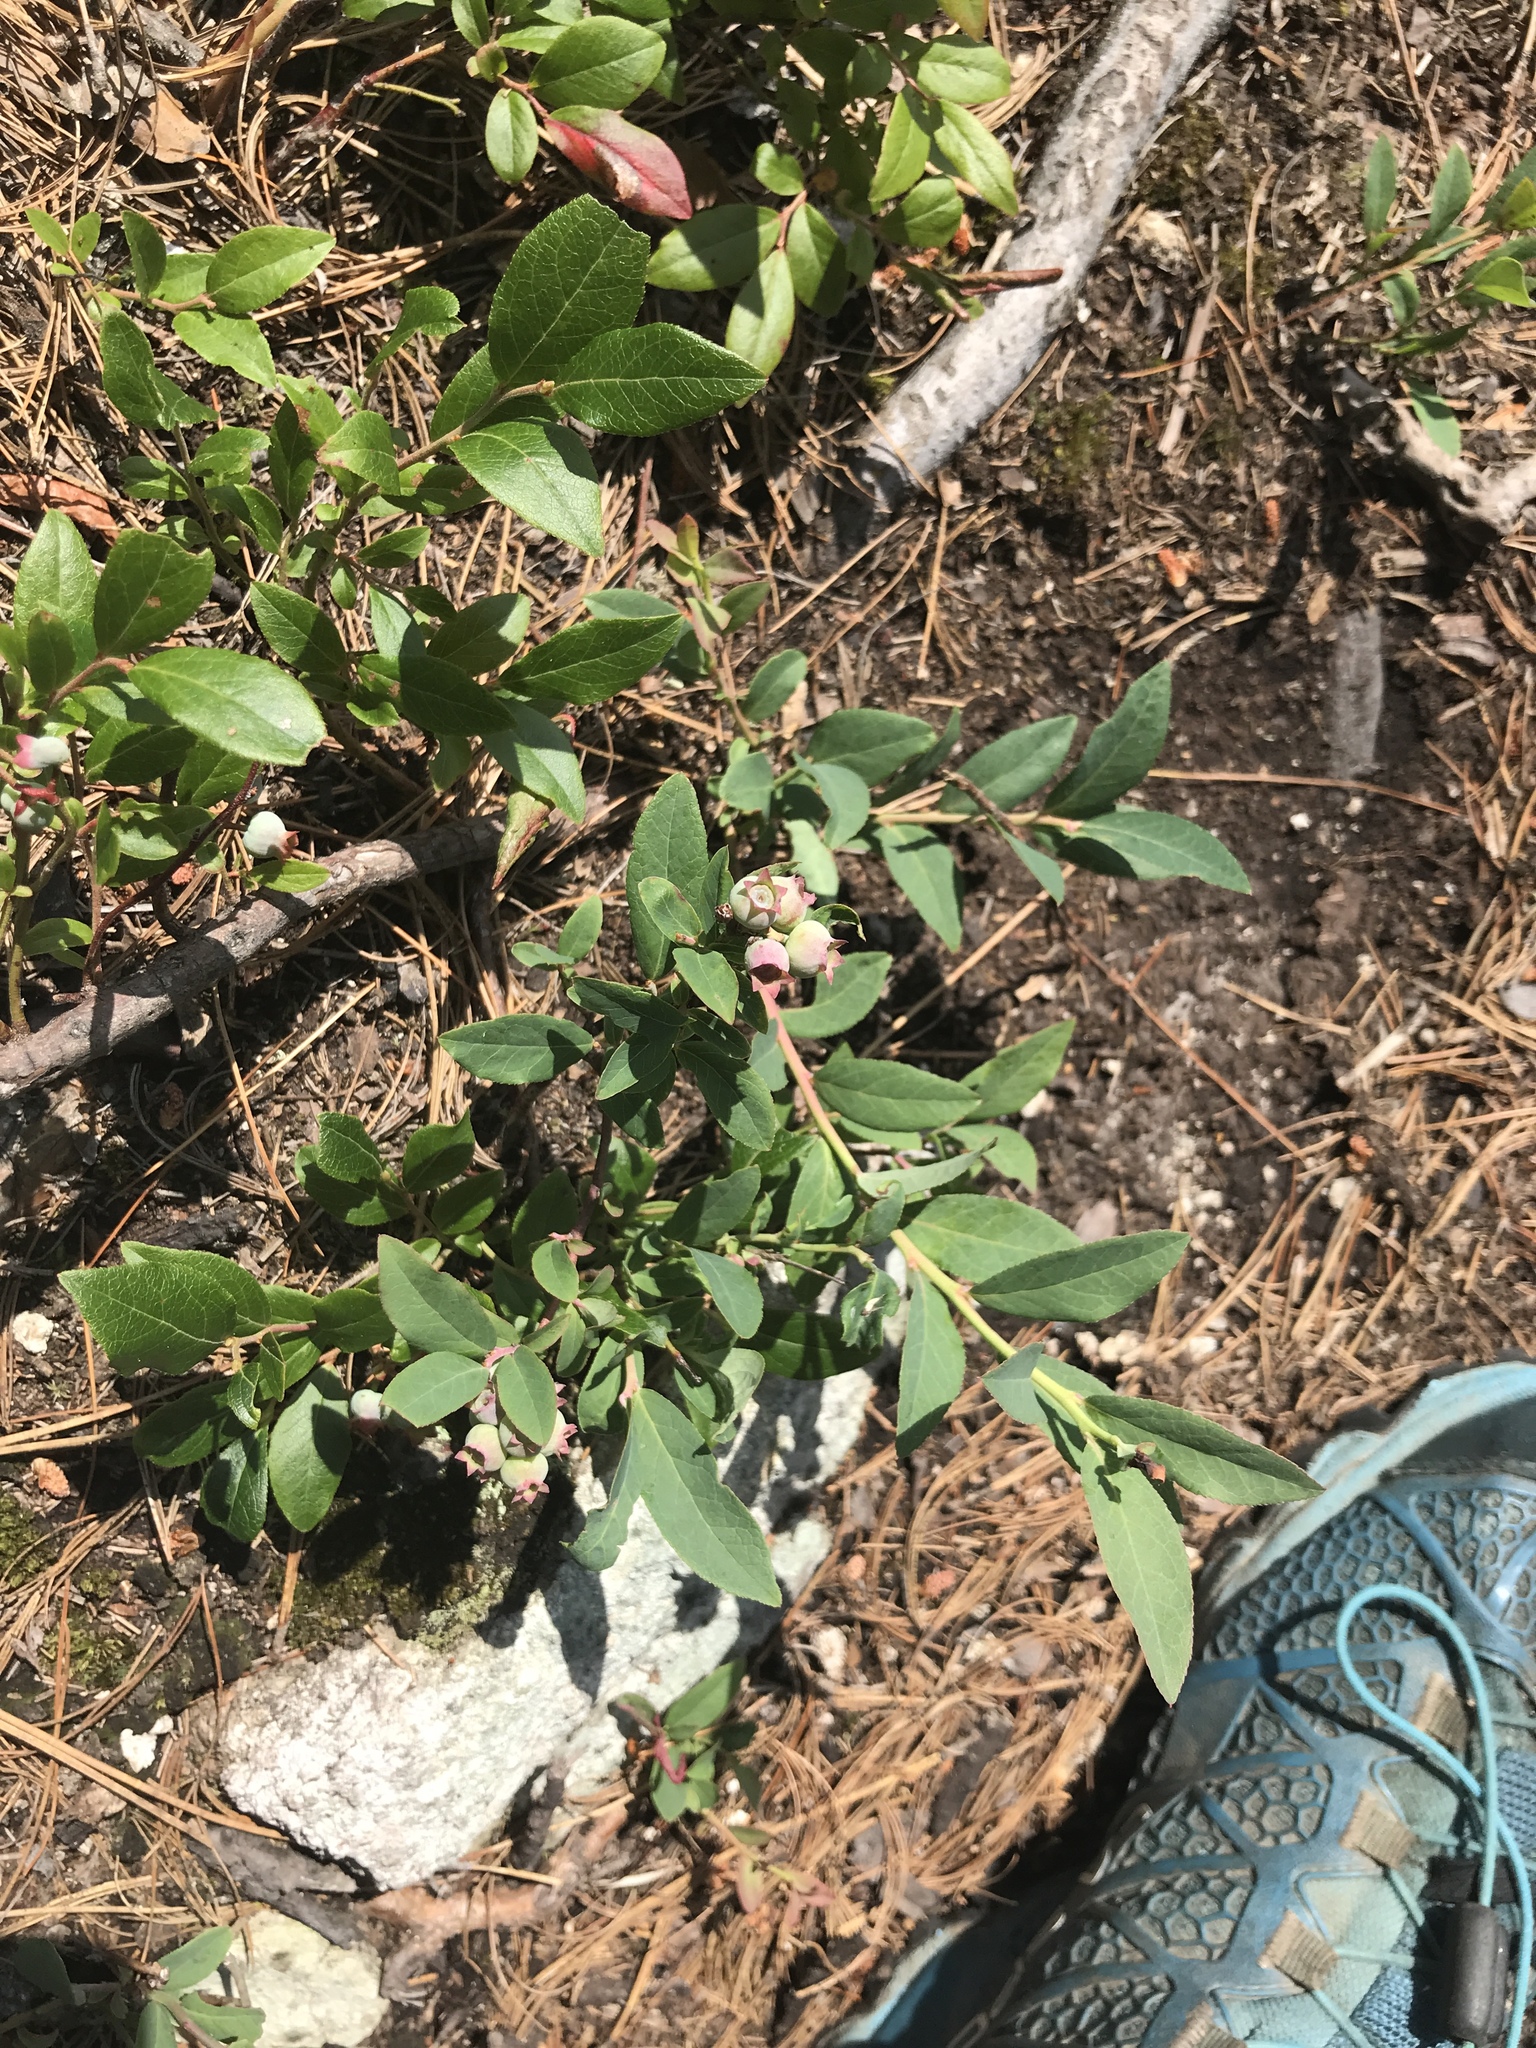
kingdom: Plantae
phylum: Tracheophyta
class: Magnoliopsida
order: Ericales
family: Ericaceae
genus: Vaccinium
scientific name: Vaccinium angustifolium
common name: Early lowbush blueberry
